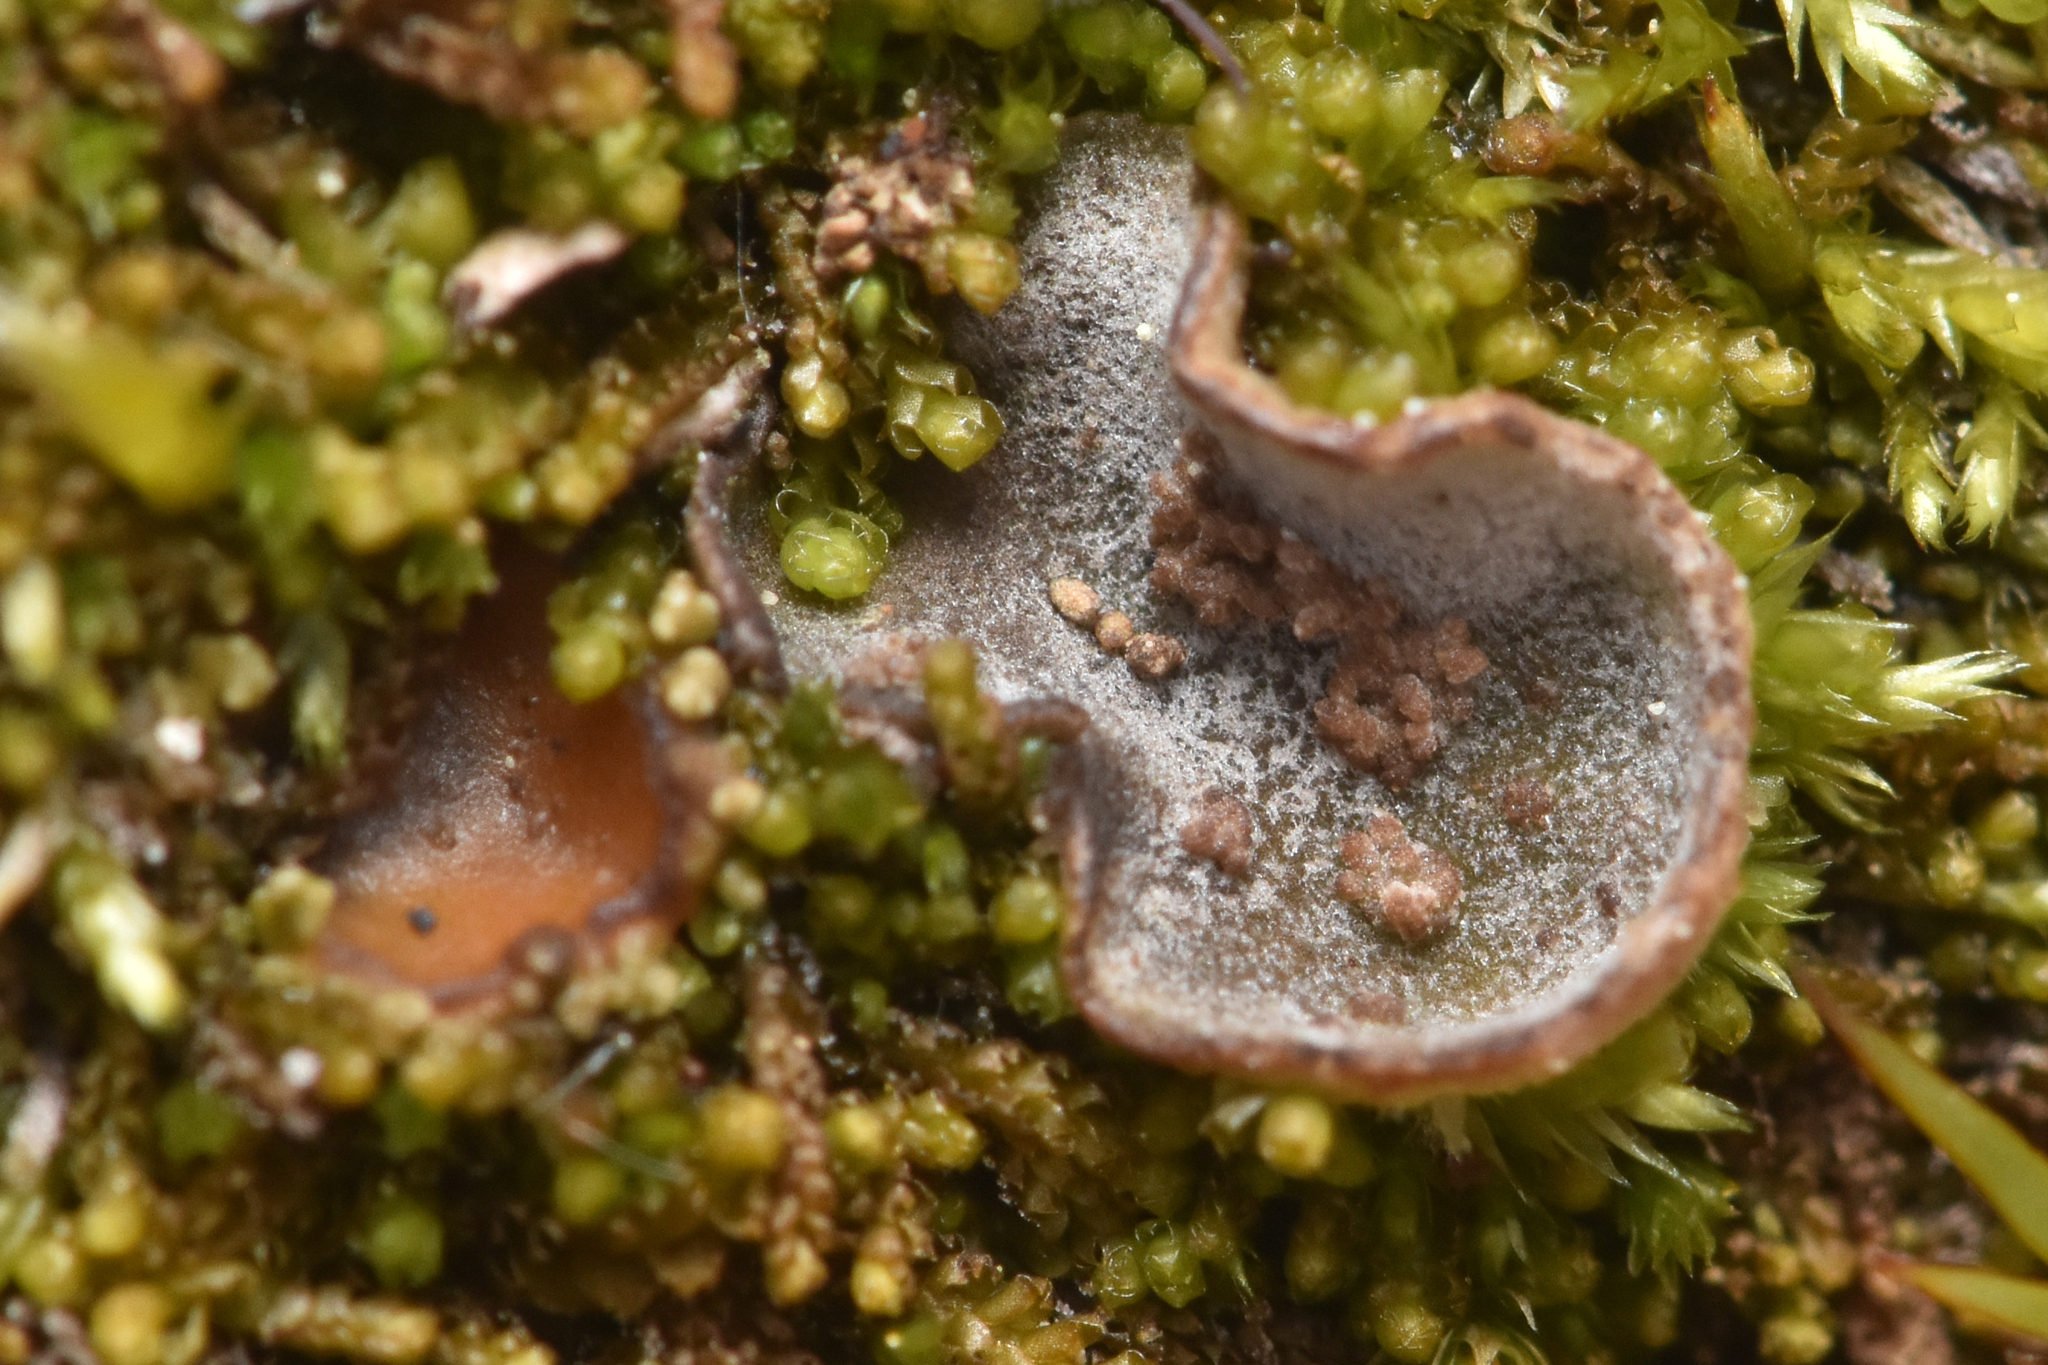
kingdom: Fungi
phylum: Ascomycota
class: Lecanoromycetes
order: Peltigerales
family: Peltigeraceae
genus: Peltigera
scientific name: Peltigera didactyla
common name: Alternating dog lichen
